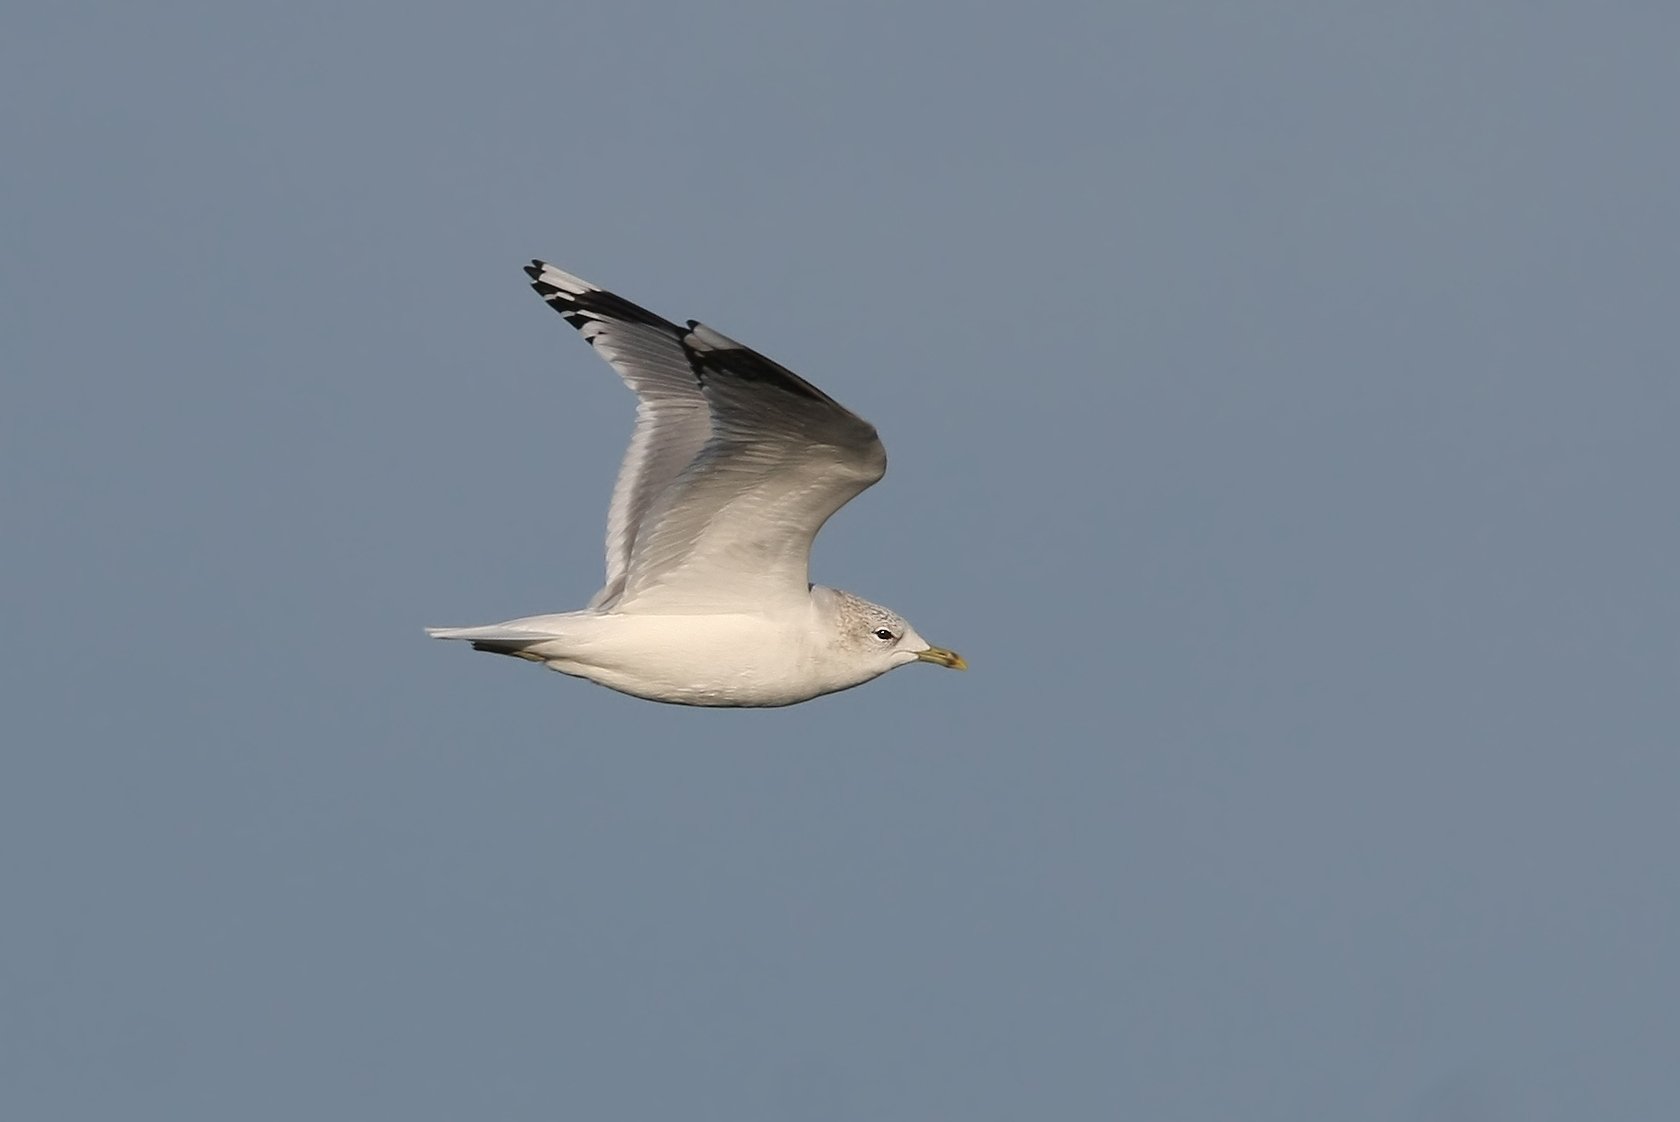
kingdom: Animalia
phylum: Chordata
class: Aves
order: Charadriiformes
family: Laridae
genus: Larus
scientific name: Larus canus
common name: Mew gull
